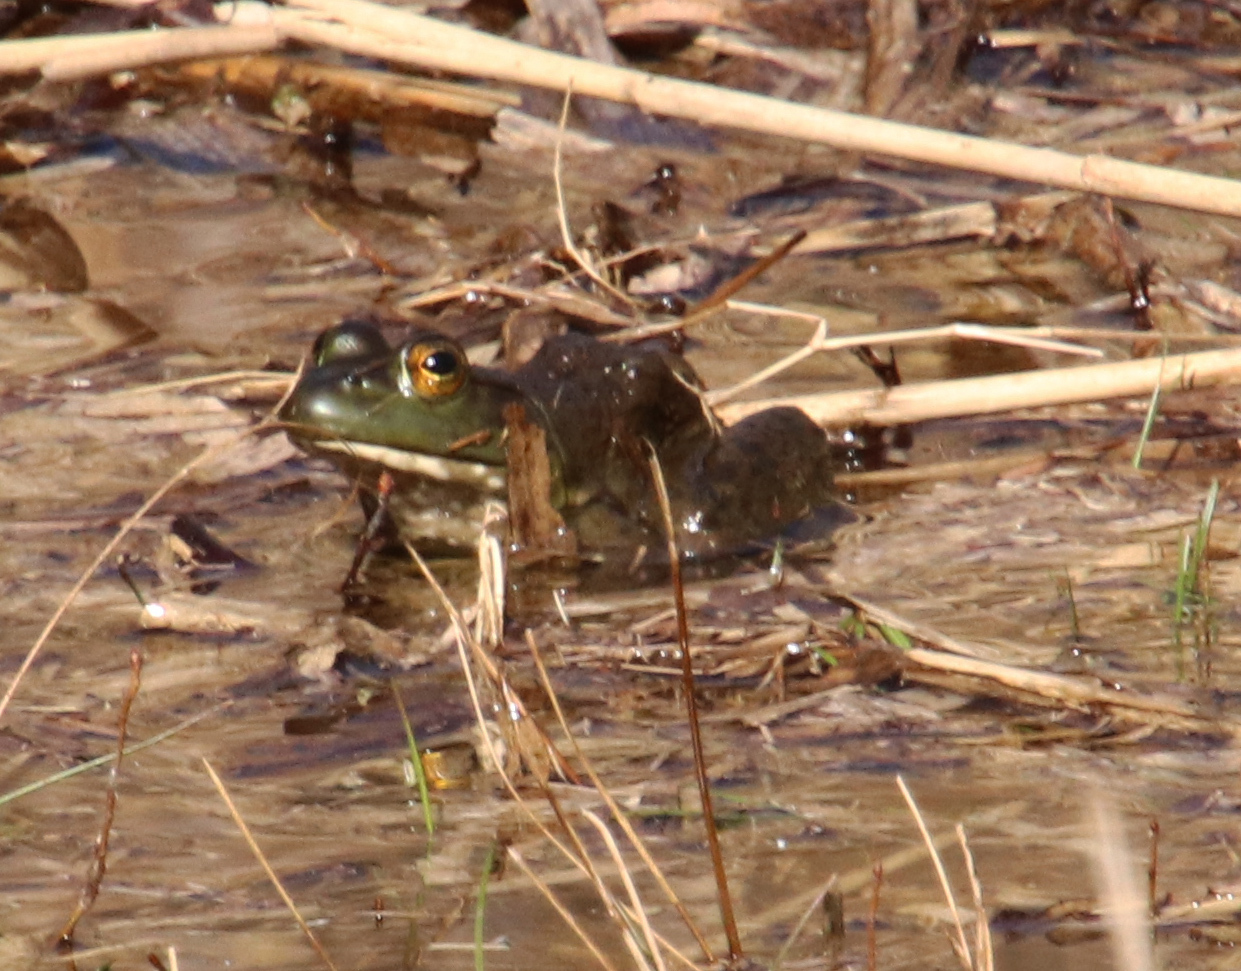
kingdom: Animalia
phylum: Chordata
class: Amphibia
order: Anura
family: Ranidae
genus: Lithobates
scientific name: Lithobates catesbeianus
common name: American bullfrog
